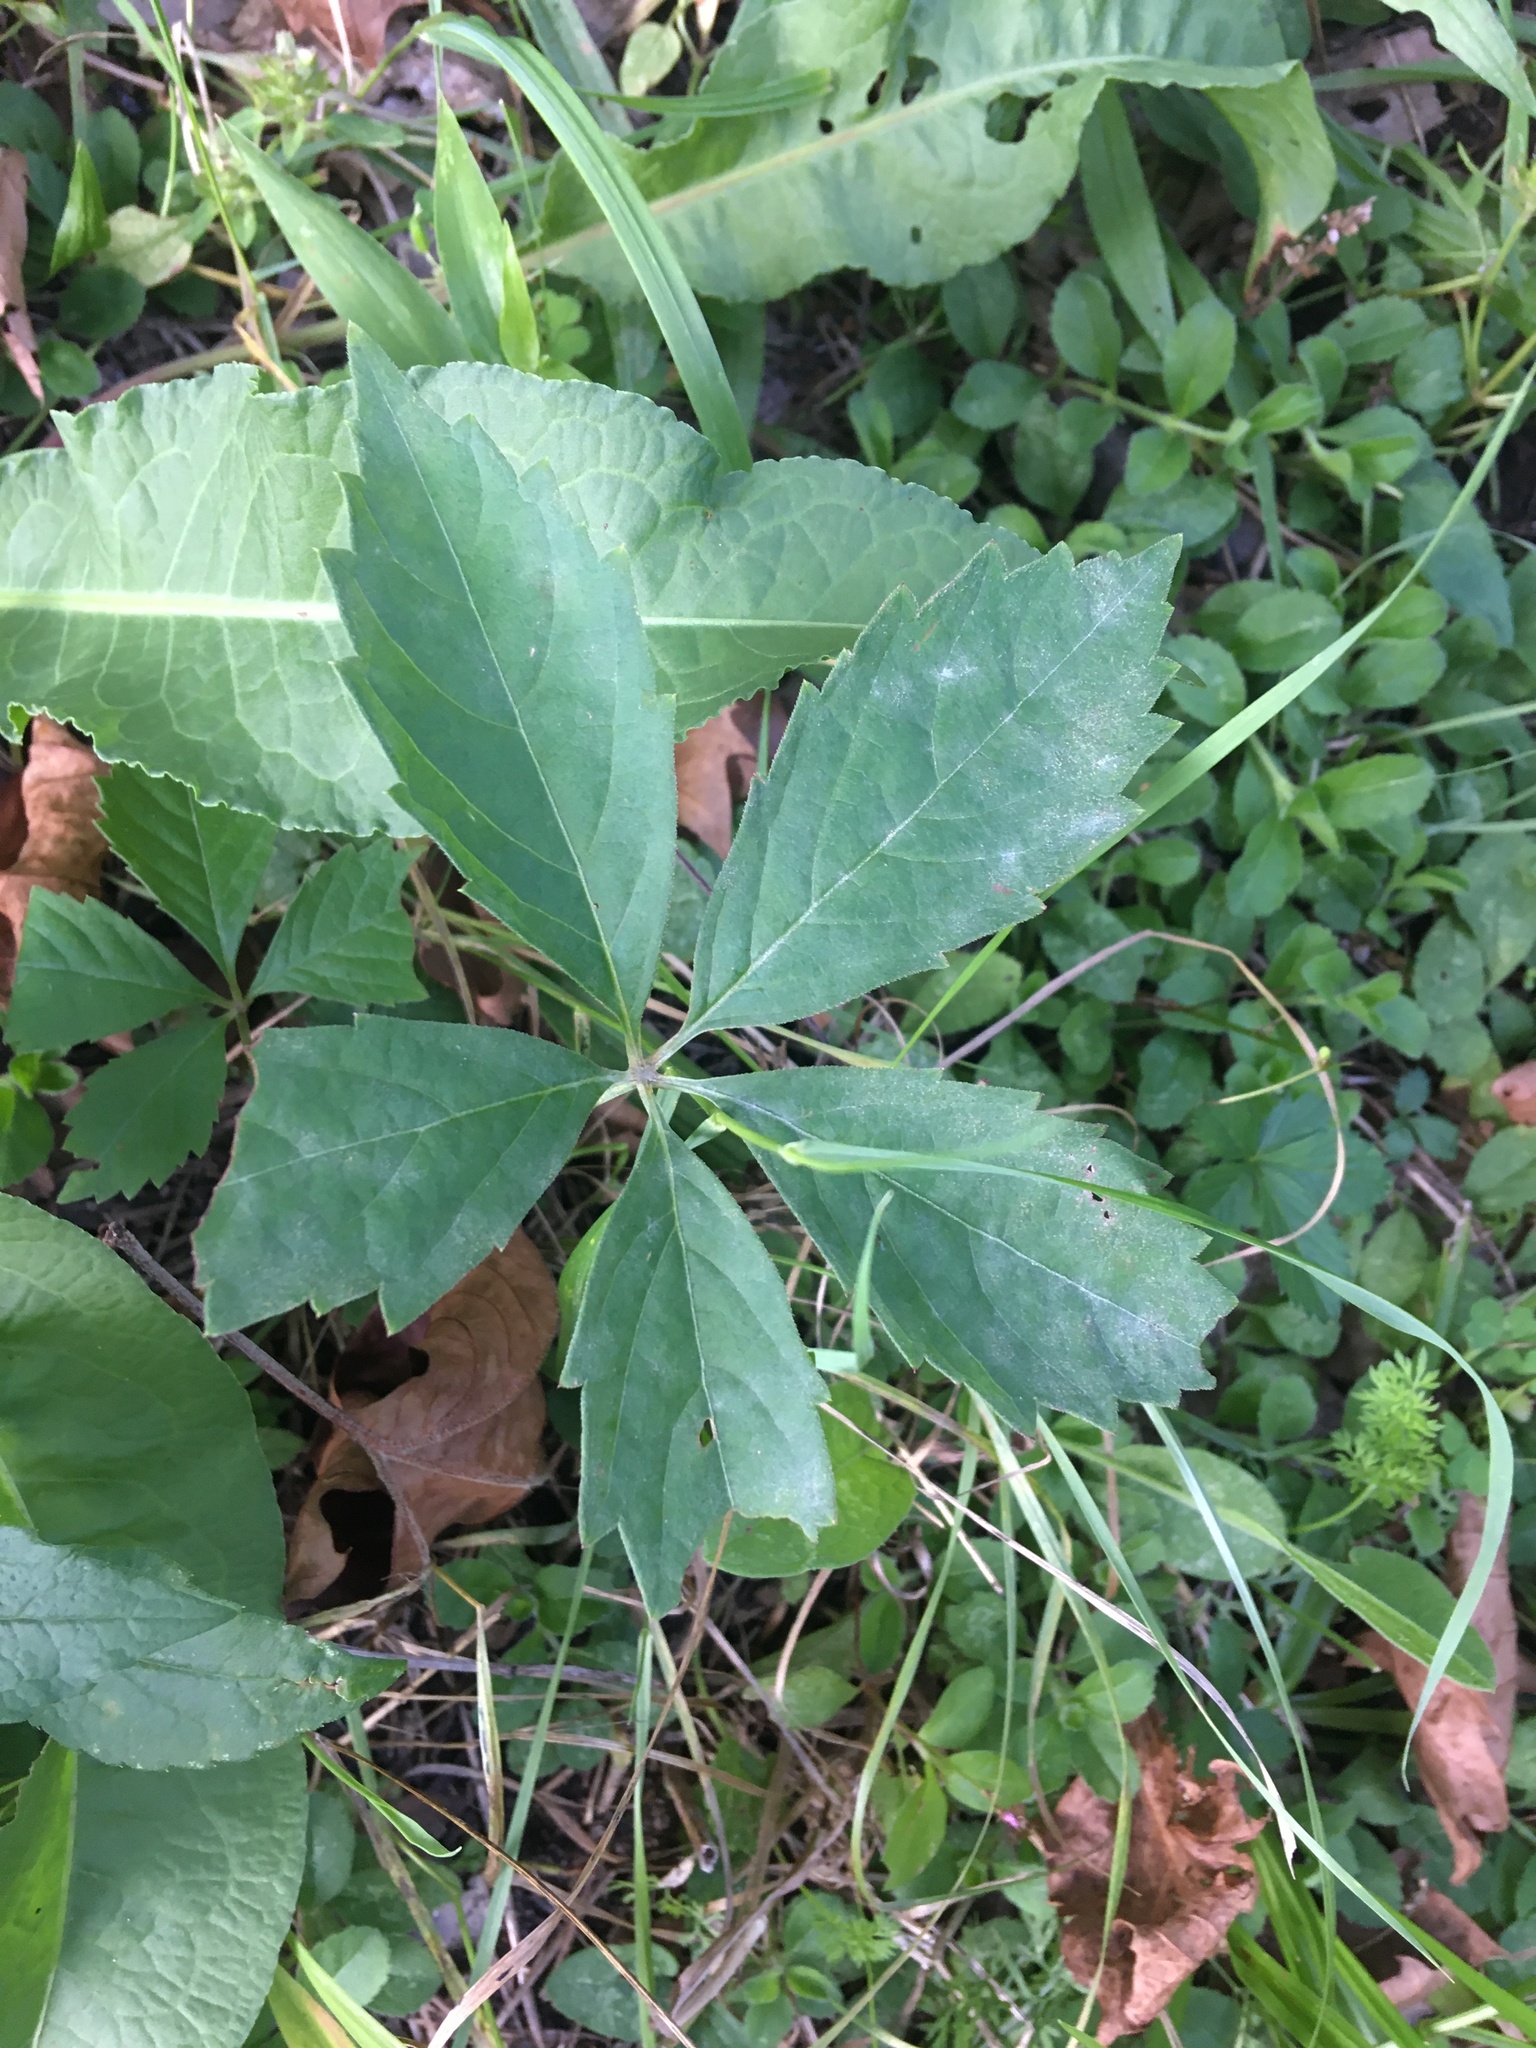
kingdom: Plantae
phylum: Tracheophyta
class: Magnoliopsida
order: Vitales
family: Vitaceae
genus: Parthenocissus
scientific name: Parthenocissus quinquefolia
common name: Virginia-creeper
